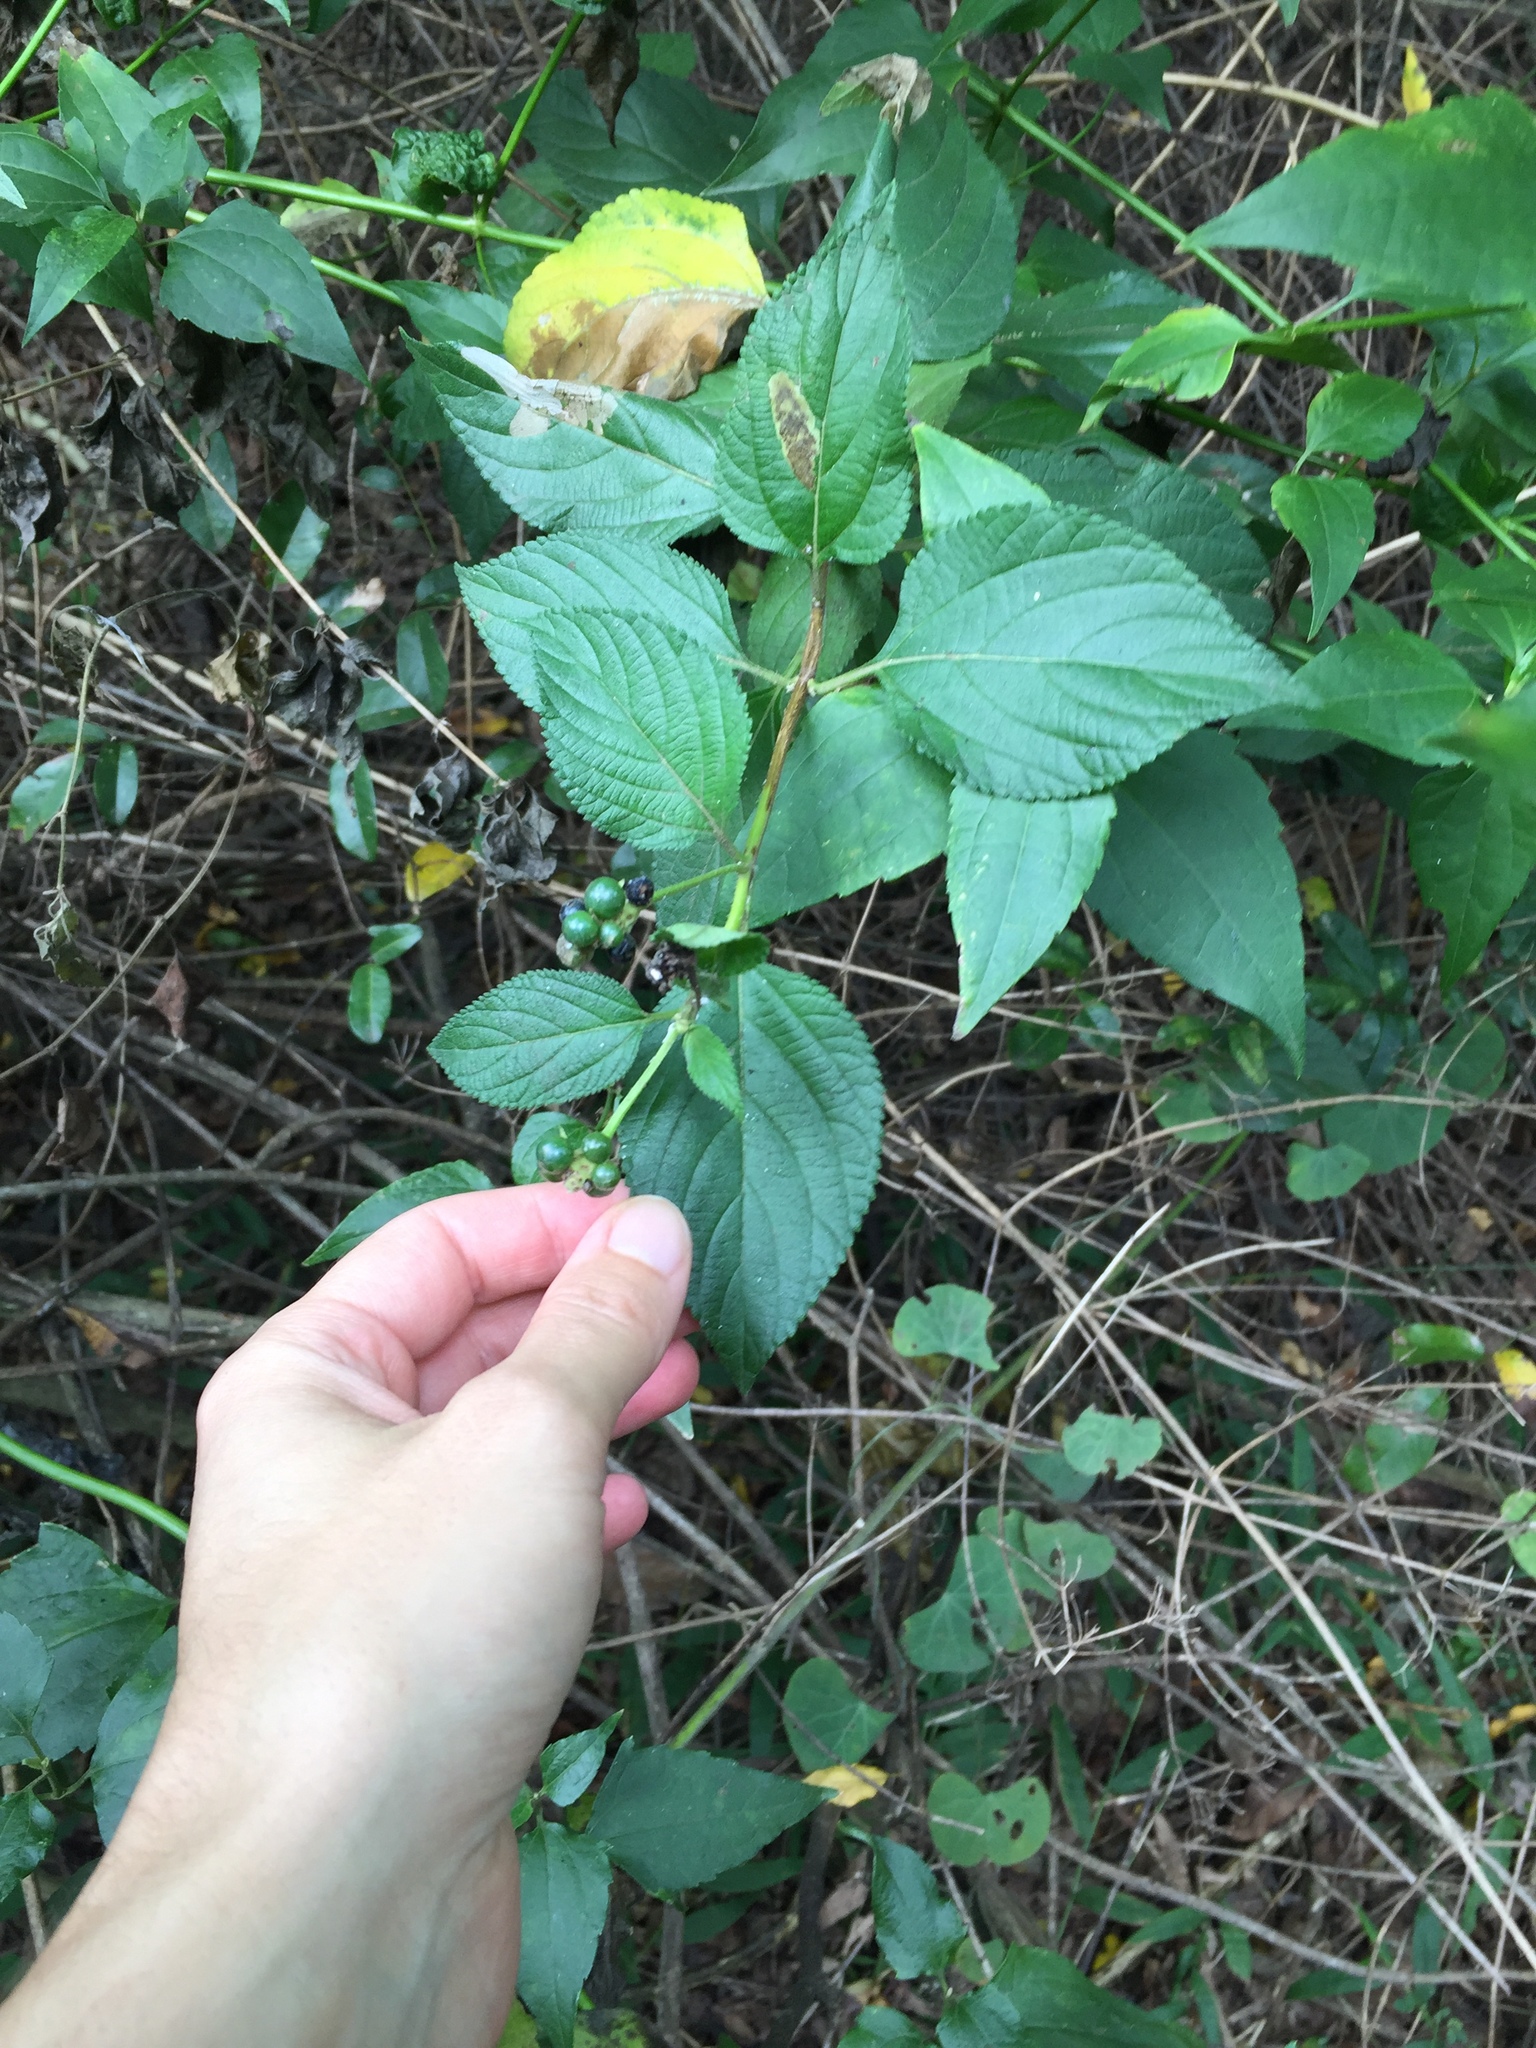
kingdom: Plantae
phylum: Tracheophyta
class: Magnoliopsida
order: Lamiales
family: Verbenaceae
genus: Lantana
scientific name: Lantana camara
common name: Lantana
